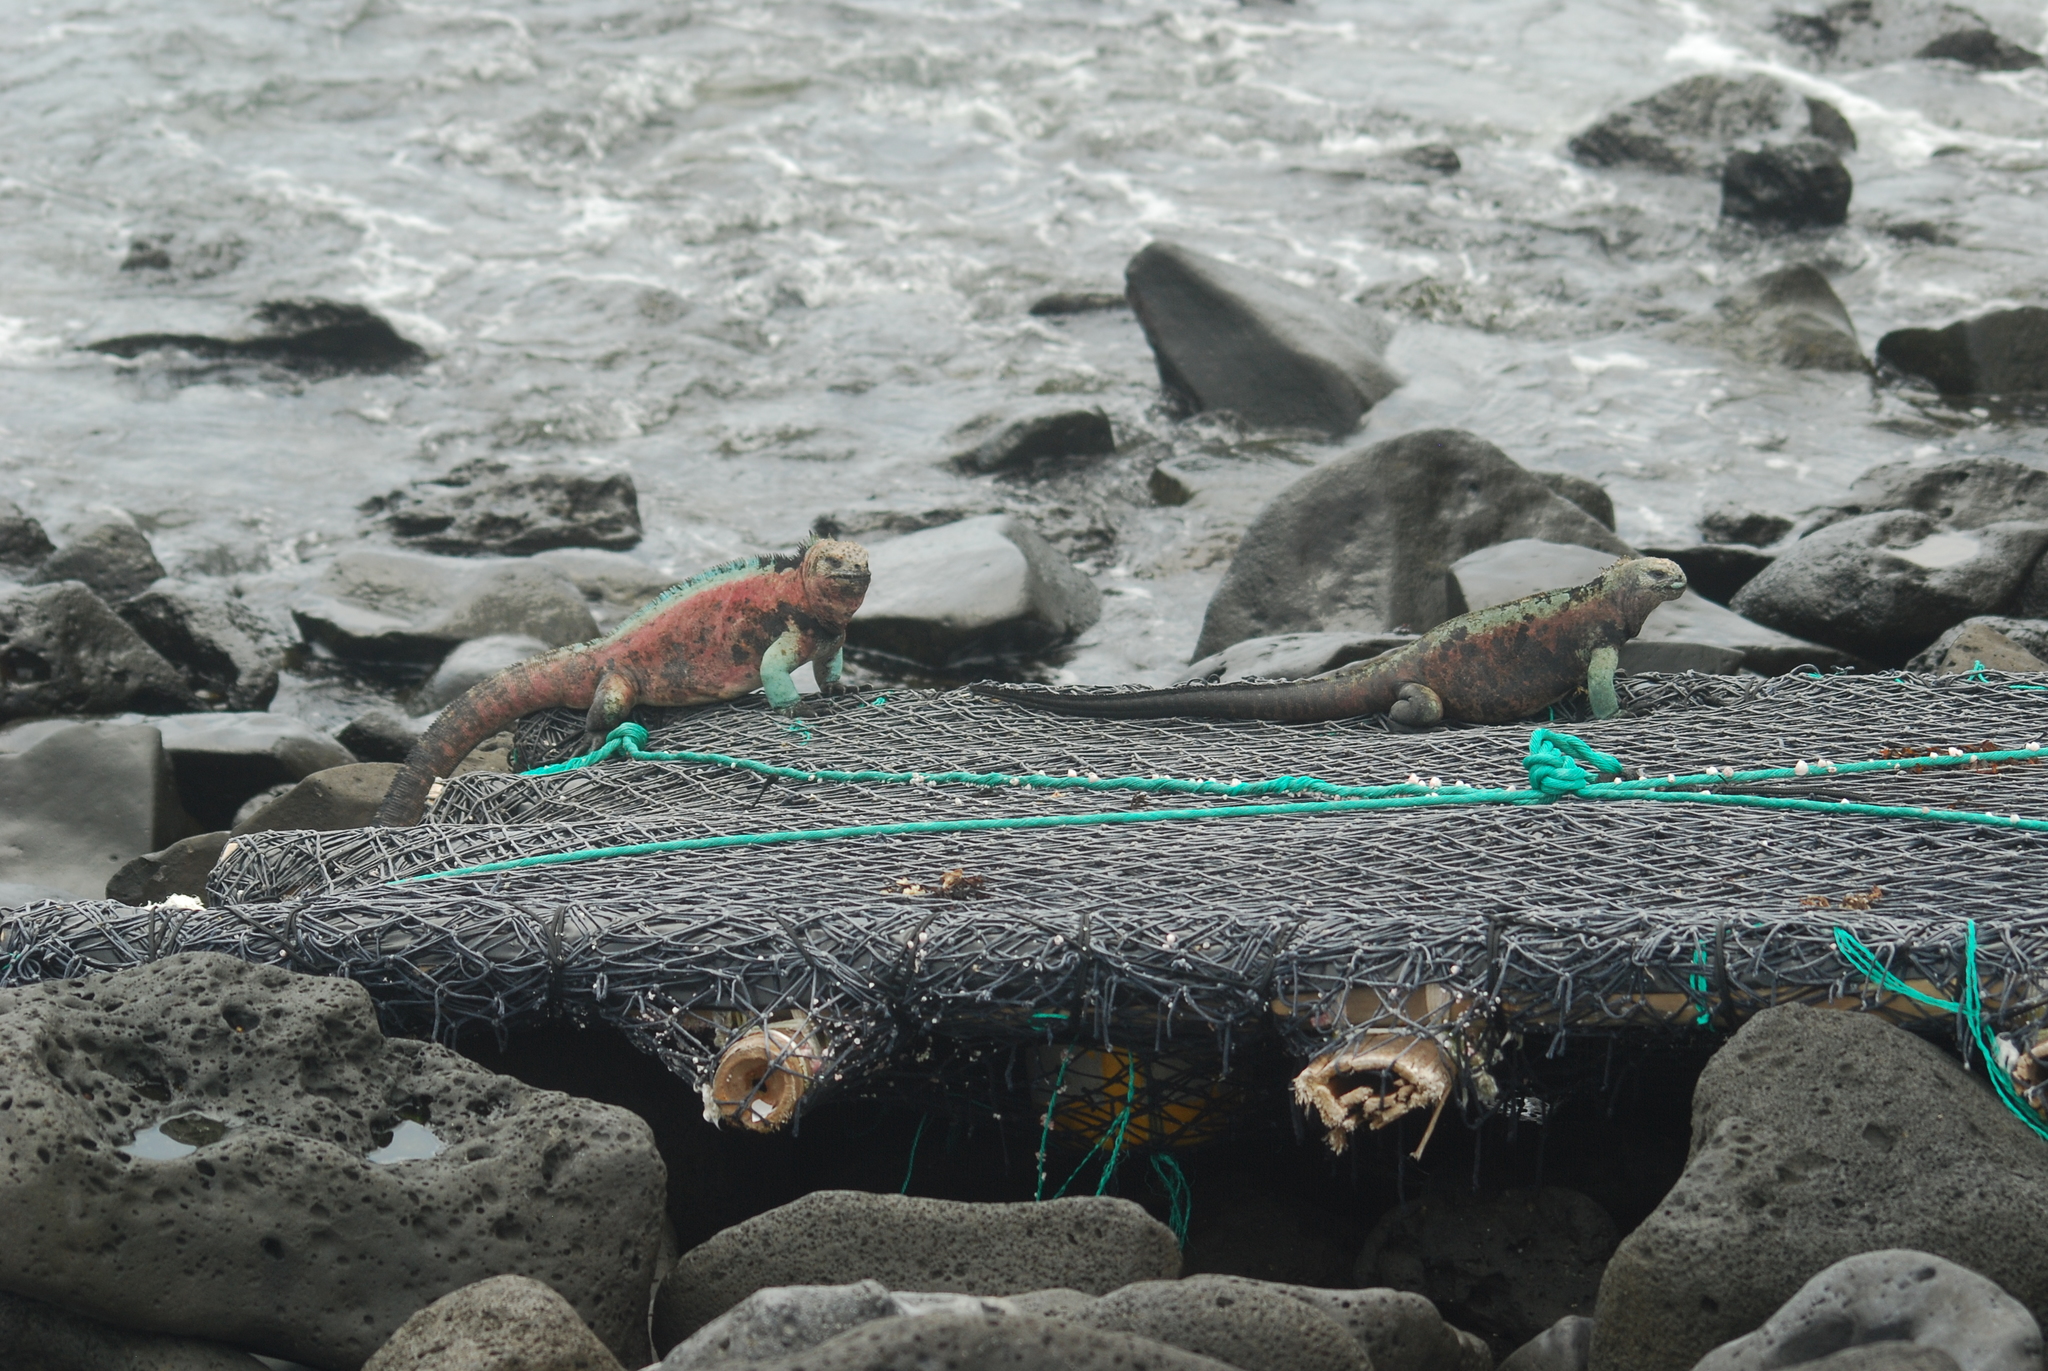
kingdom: Animalia
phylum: Chordata
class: Squamata
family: Iguanidae
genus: Amblyrhynchus
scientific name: Amblyrhynchus cristatus
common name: Marine iguana
